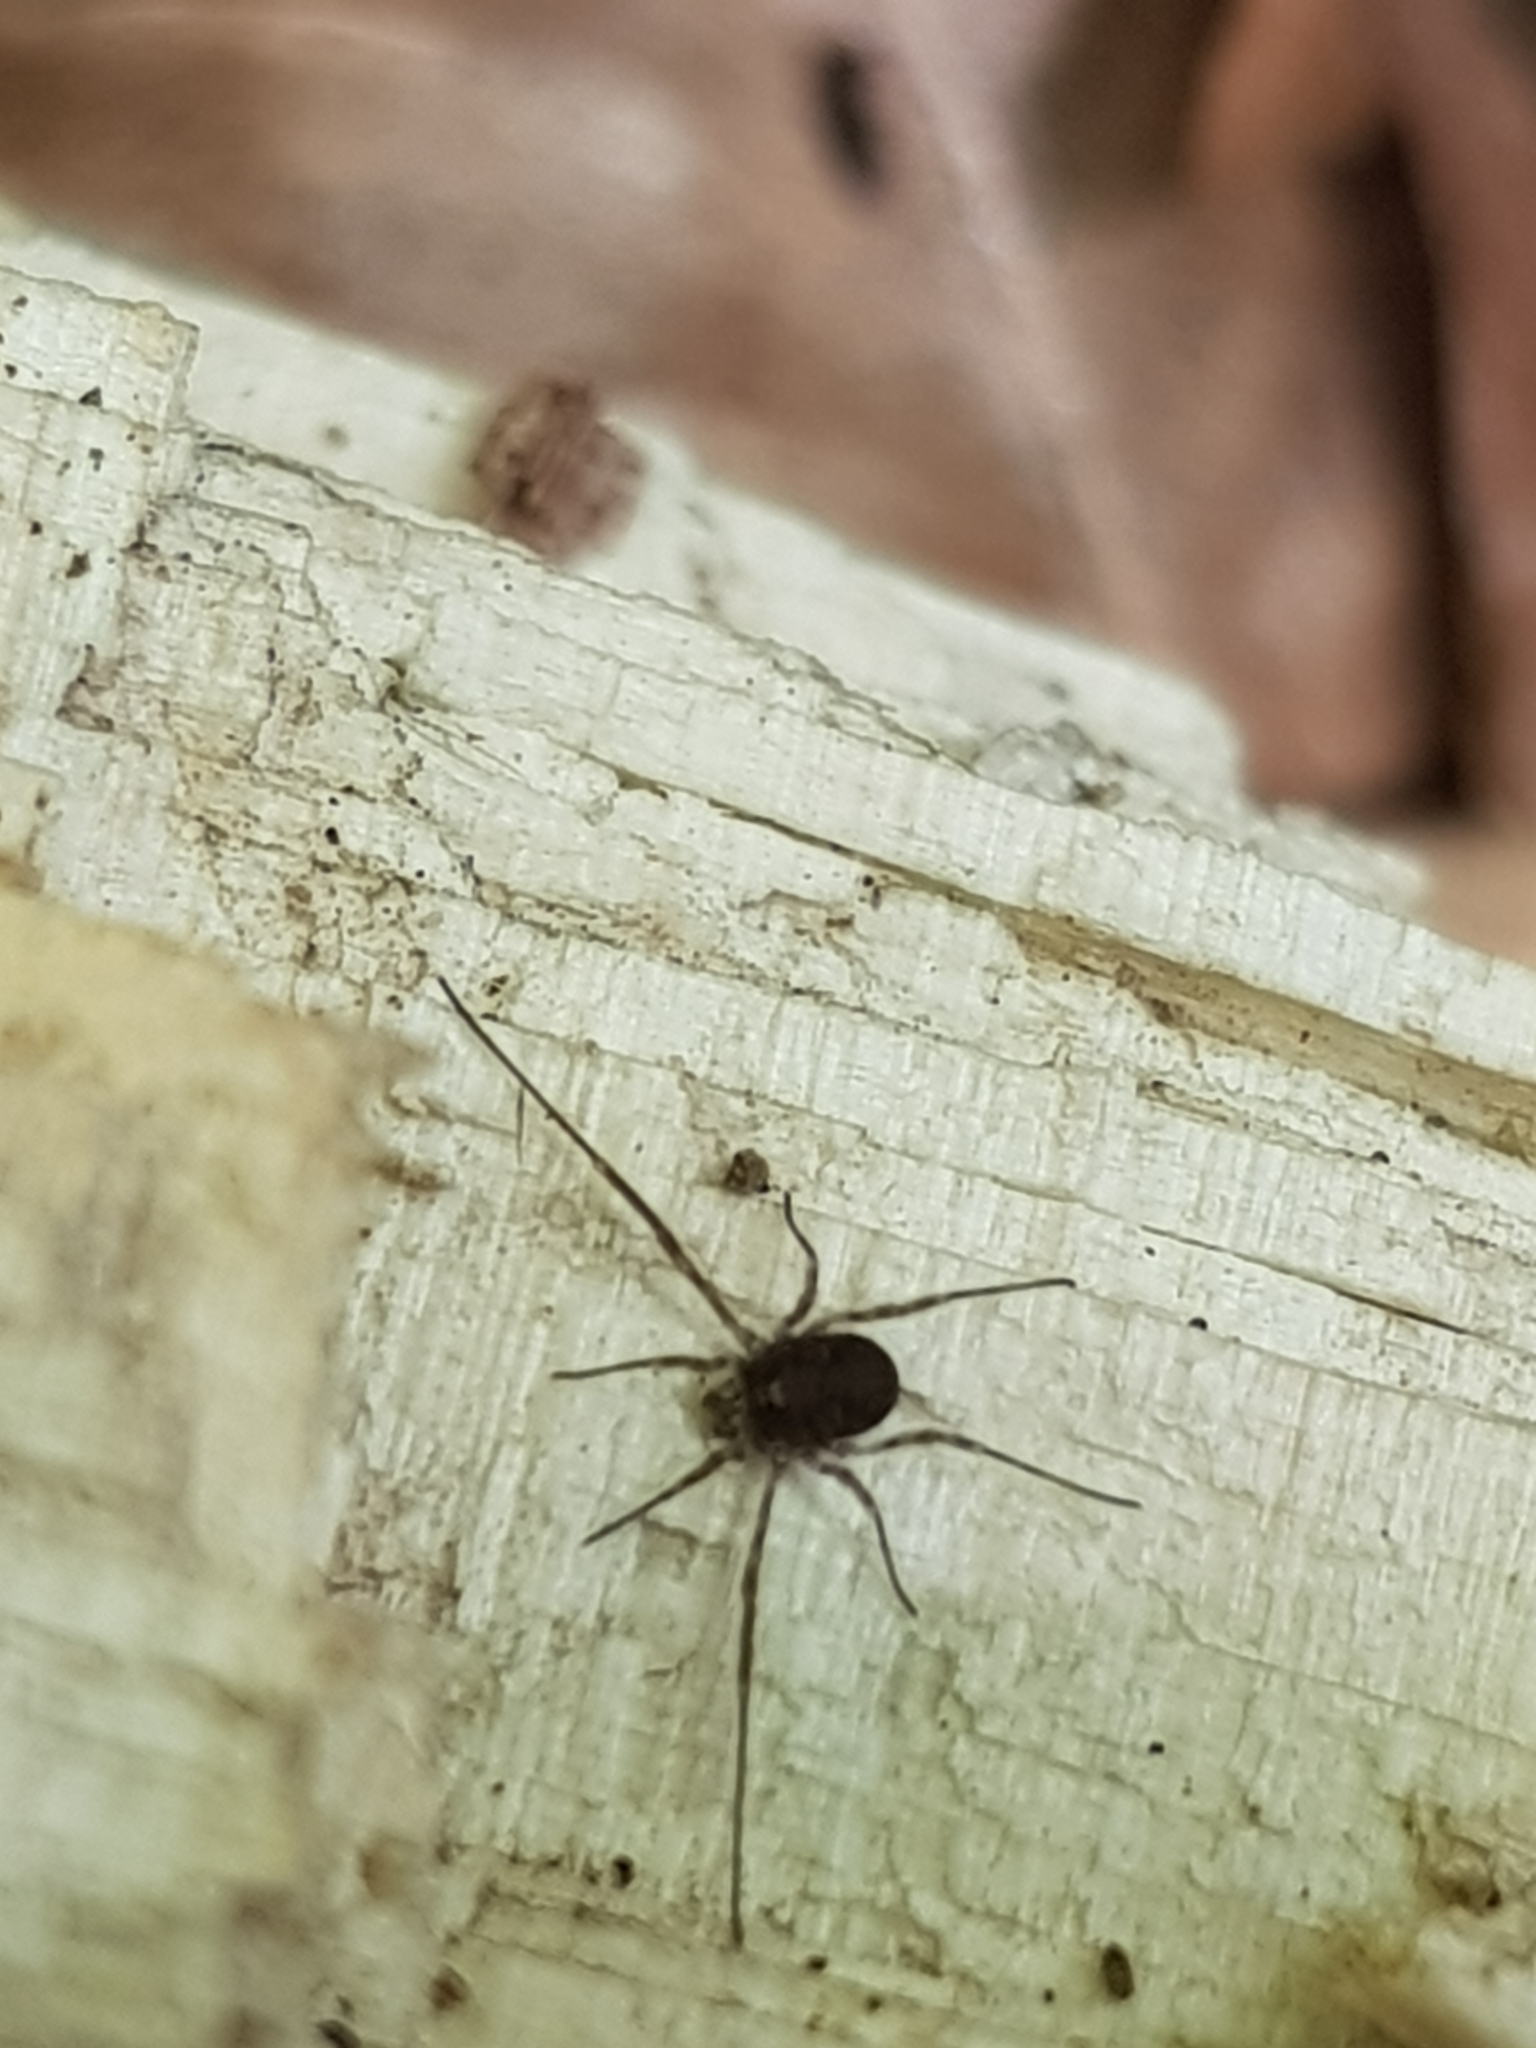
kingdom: Animalia
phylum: Arthropoda
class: Arachnida
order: Opiliones
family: Phalangiidae
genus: Lacinius
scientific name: Lacinius dentiger
